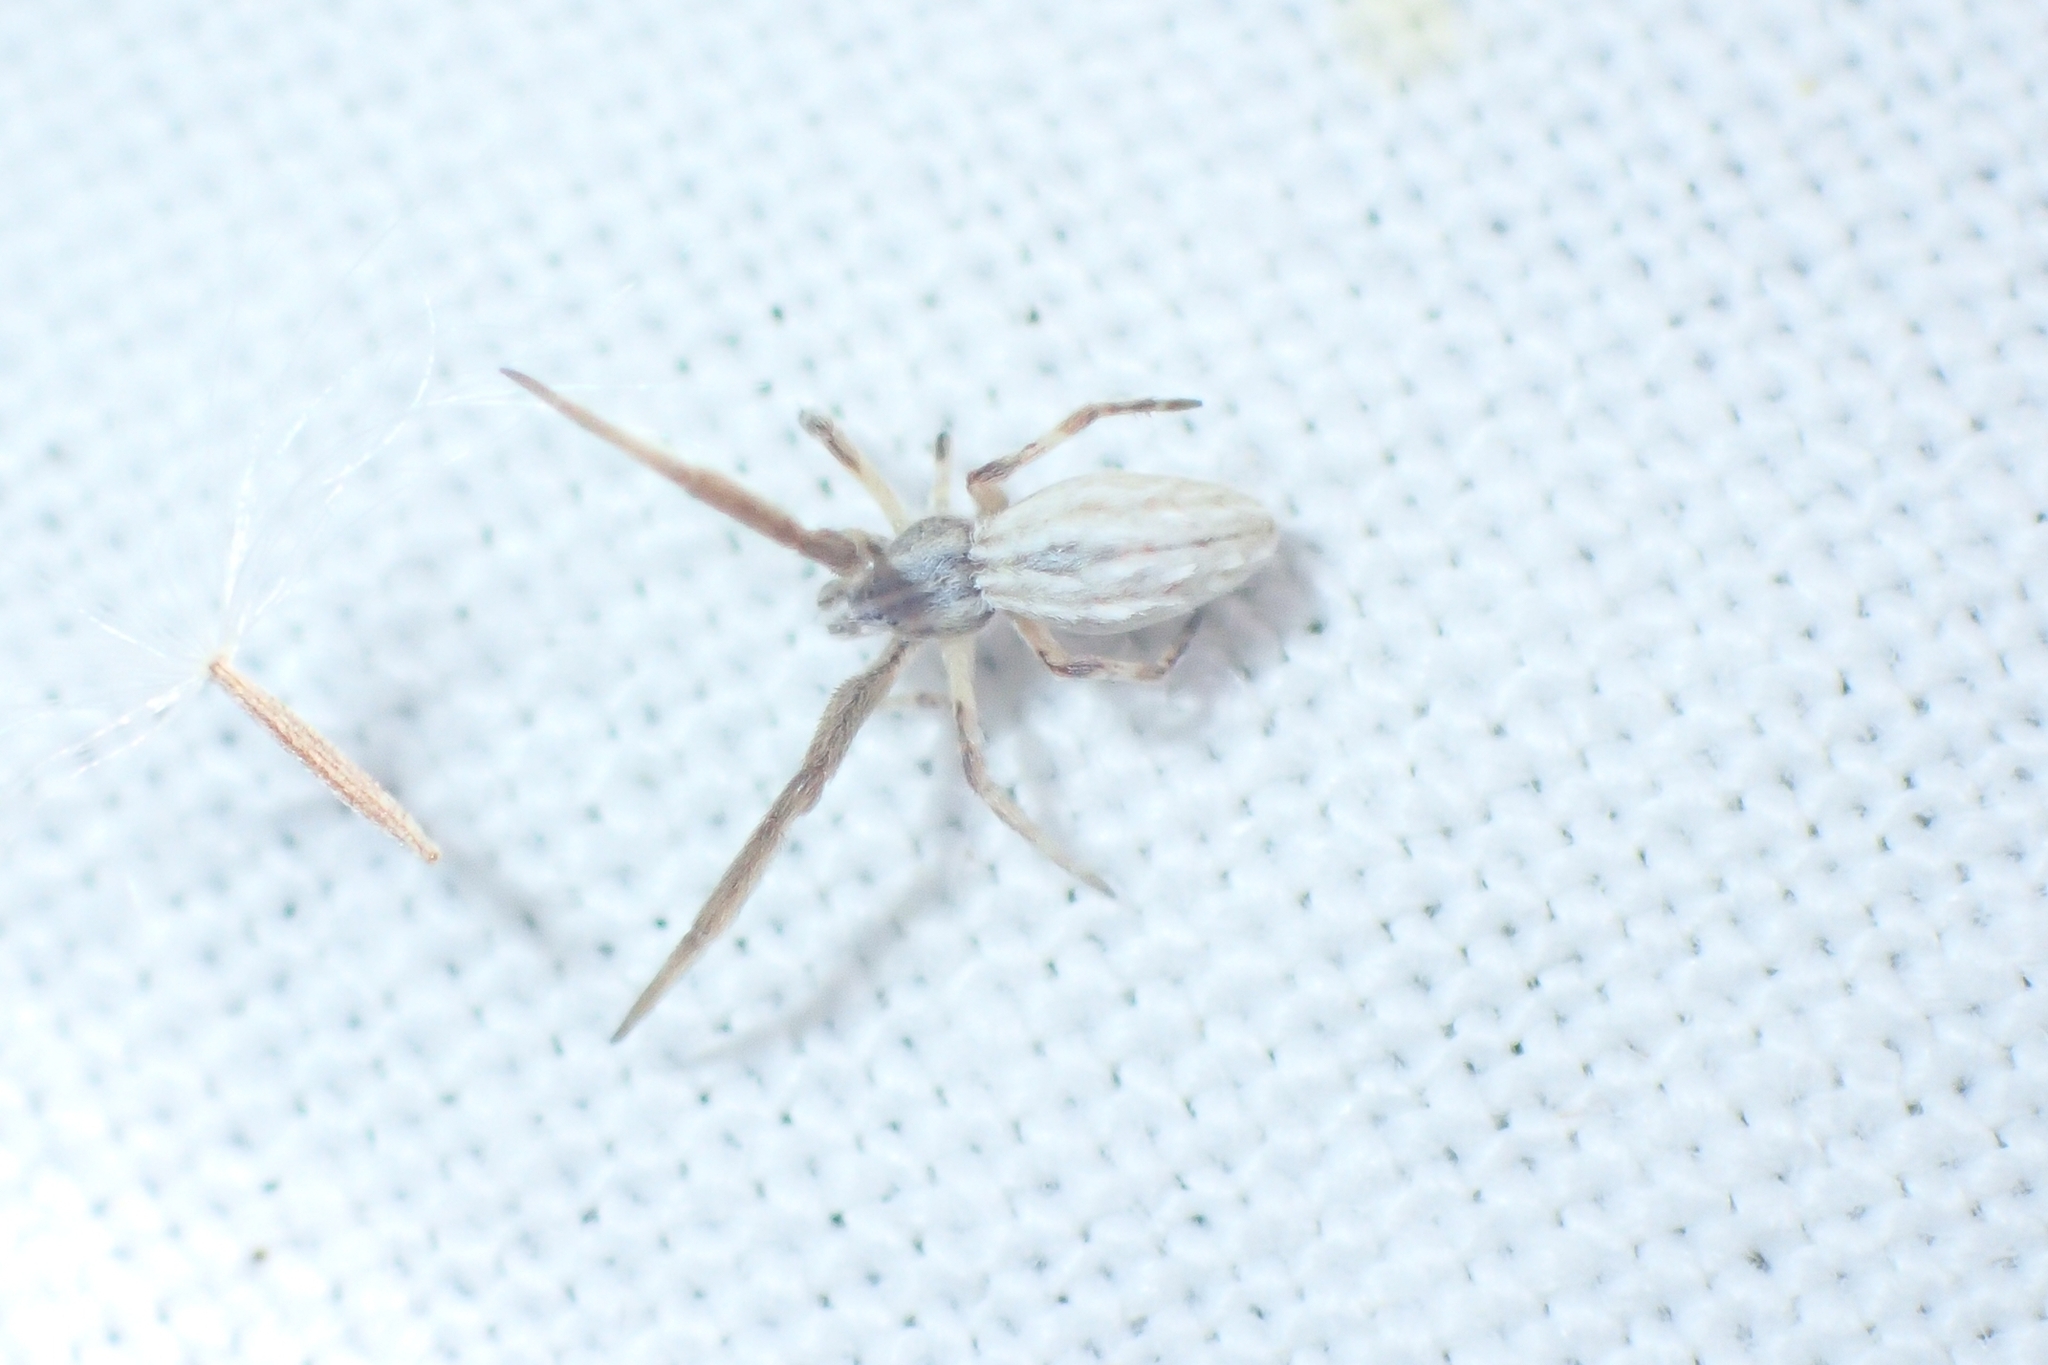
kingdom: Animalia
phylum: Arthropoda
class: Arachnida
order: Araneae
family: Uloboridae
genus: Uloborus
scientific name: Uloborus walckenaerius
